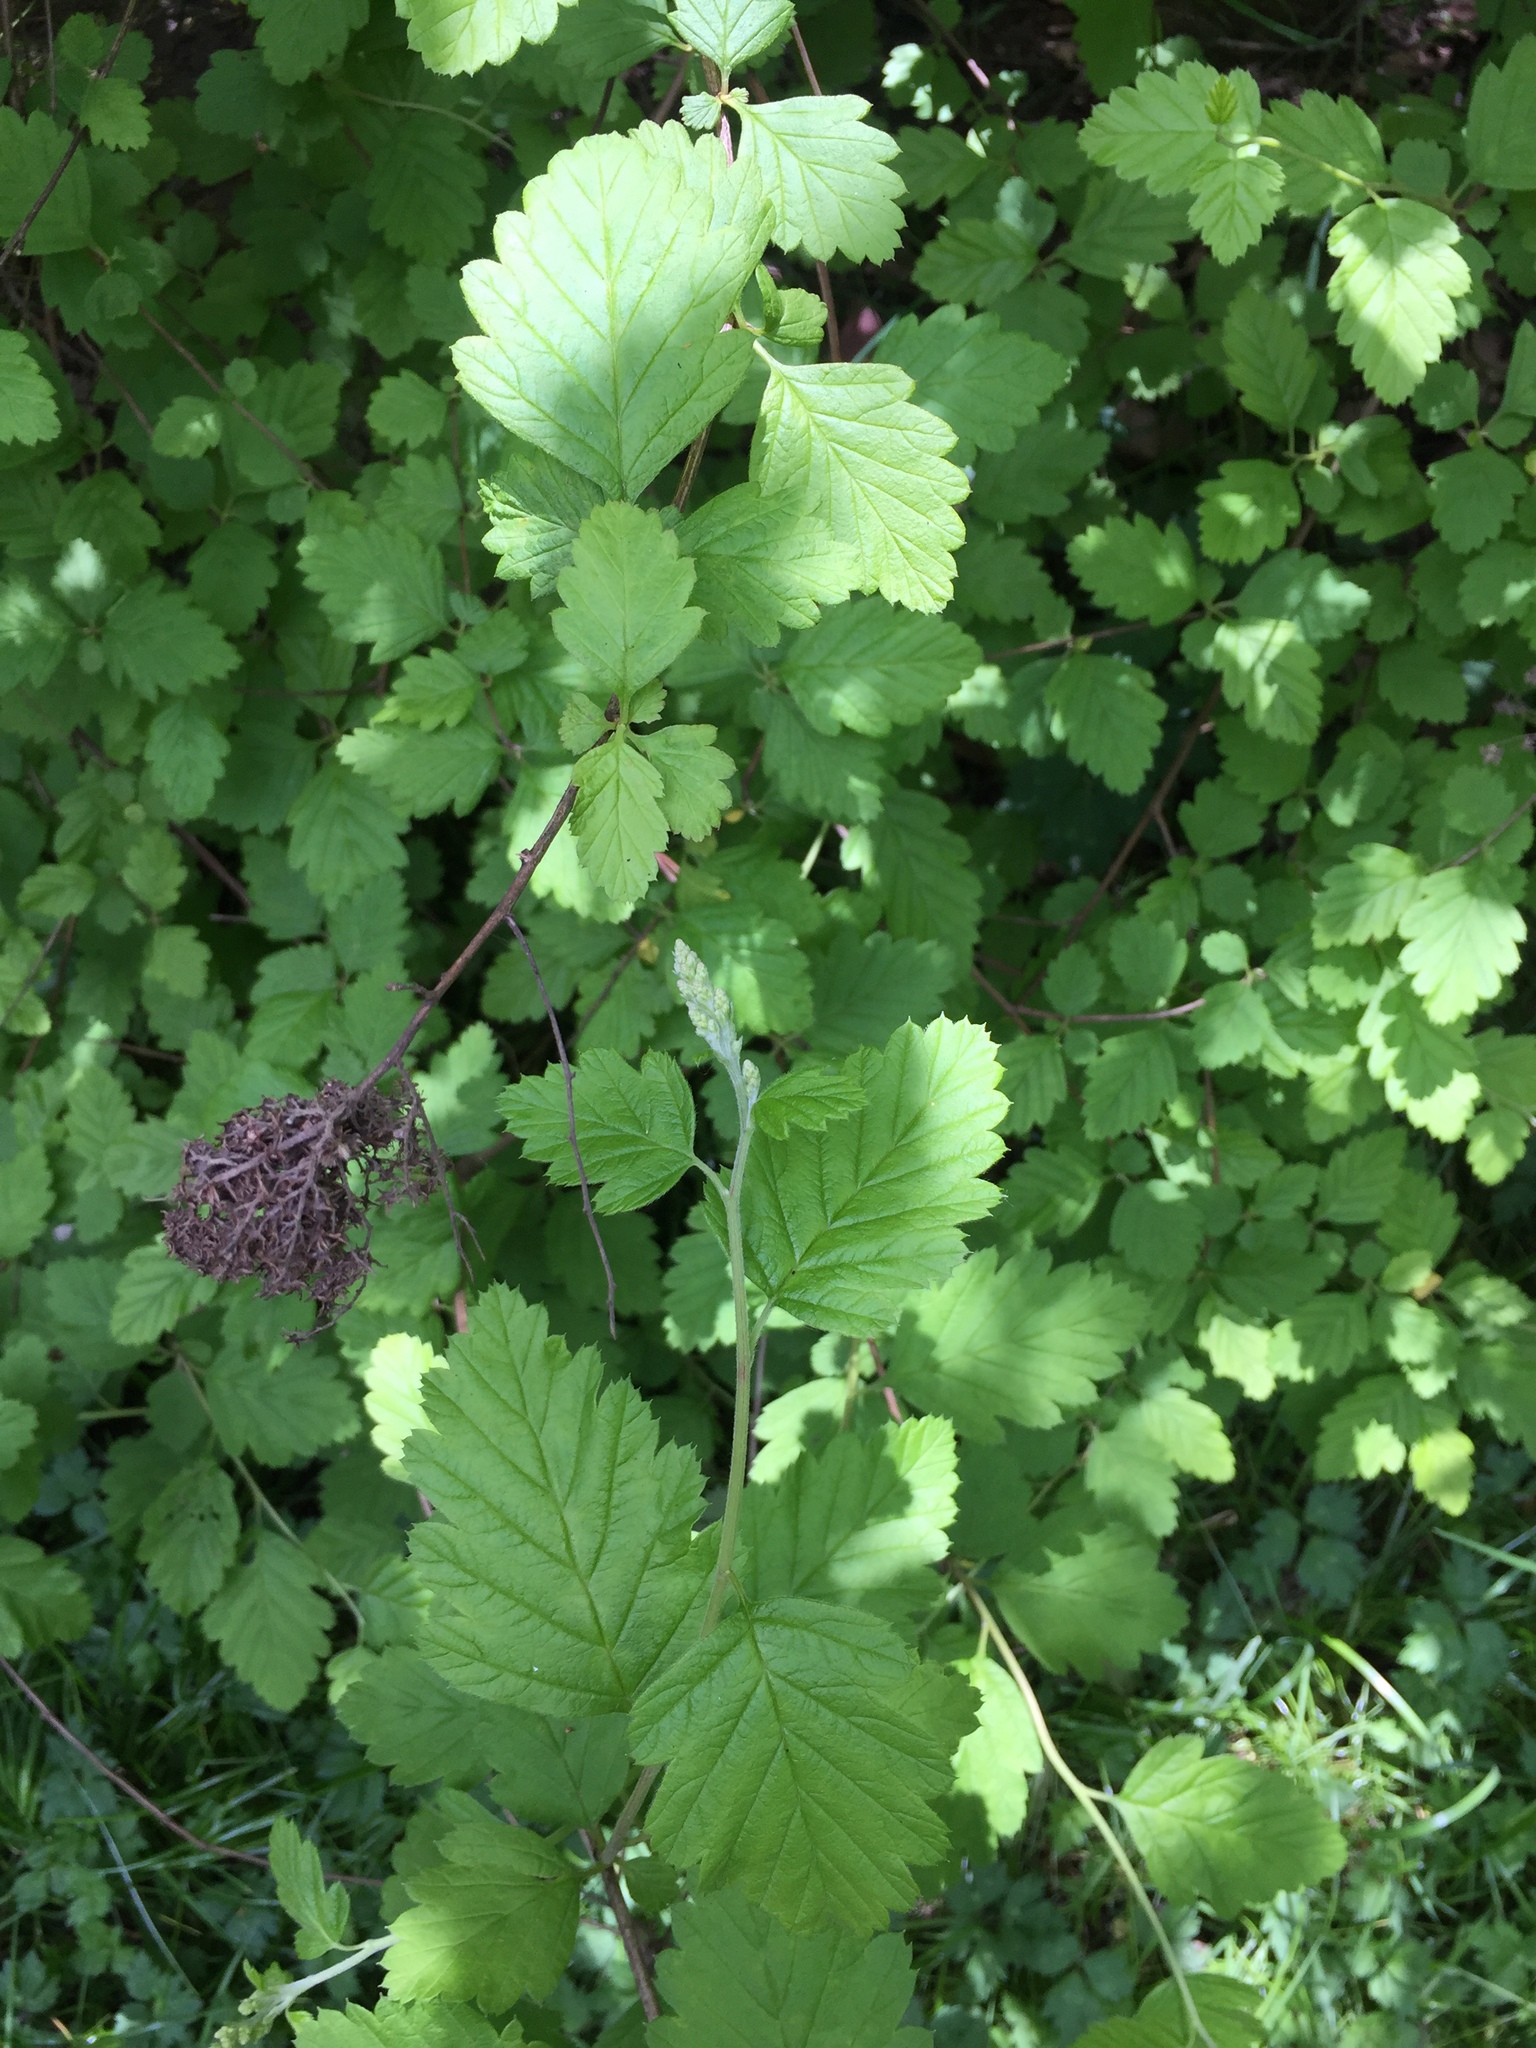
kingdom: Plantae
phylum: Tracheophyta
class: Magnoliopsida
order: Rosales
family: Rosaceae
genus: Holodiscus
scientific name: Holodiscus discolor
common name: Oceanspray
